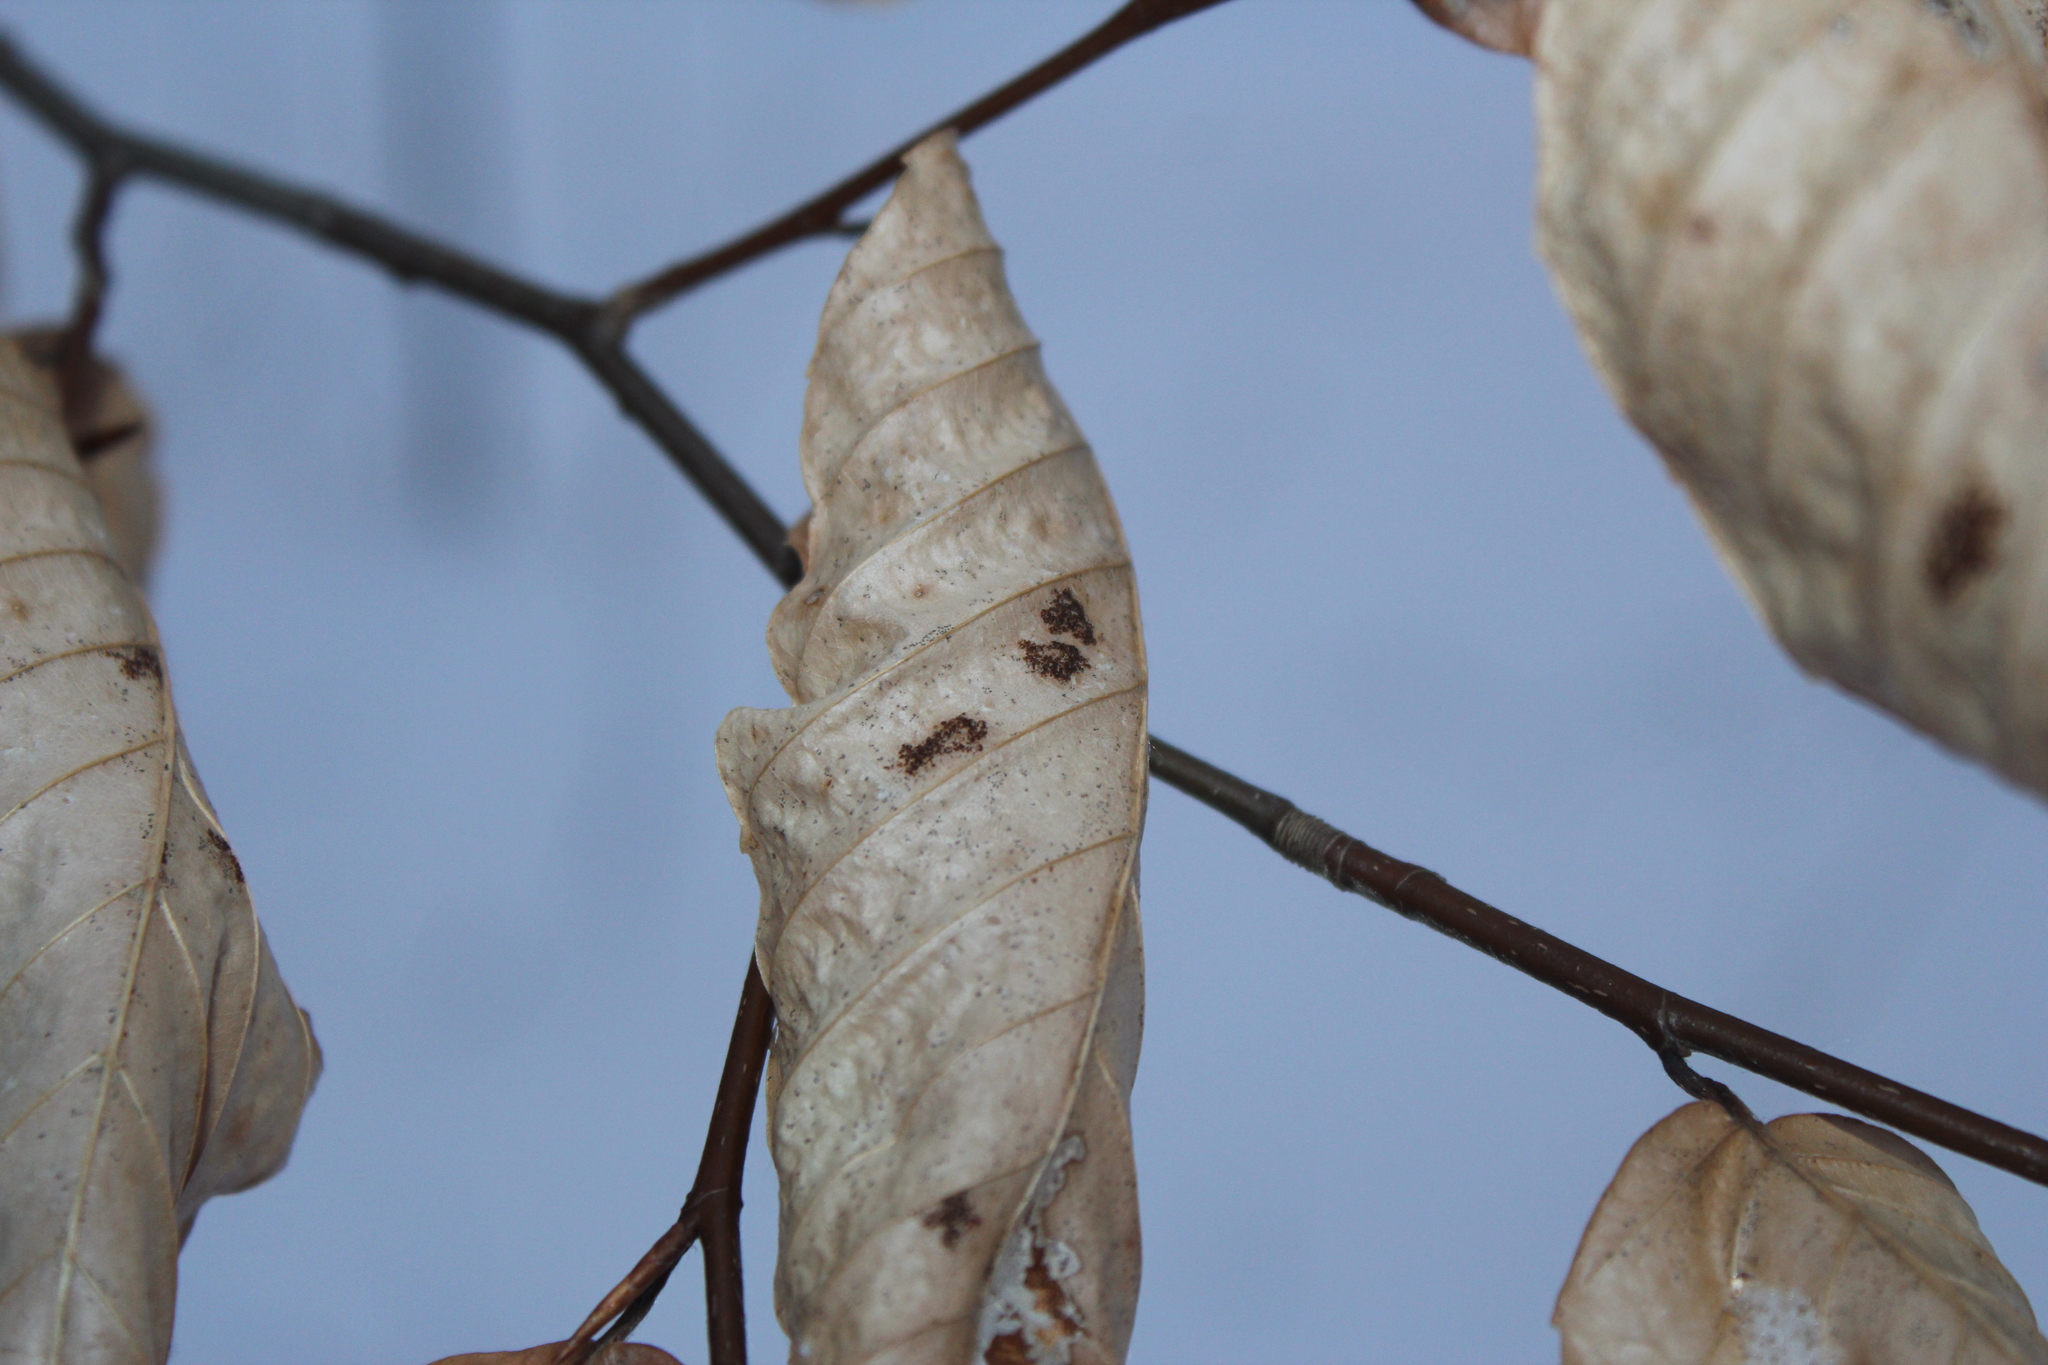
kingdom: Animalia
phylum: Arthropoda
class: Arachnida
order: Trombidiformes
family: Eriophyidae
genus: Acalitus
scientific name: Acalitus
